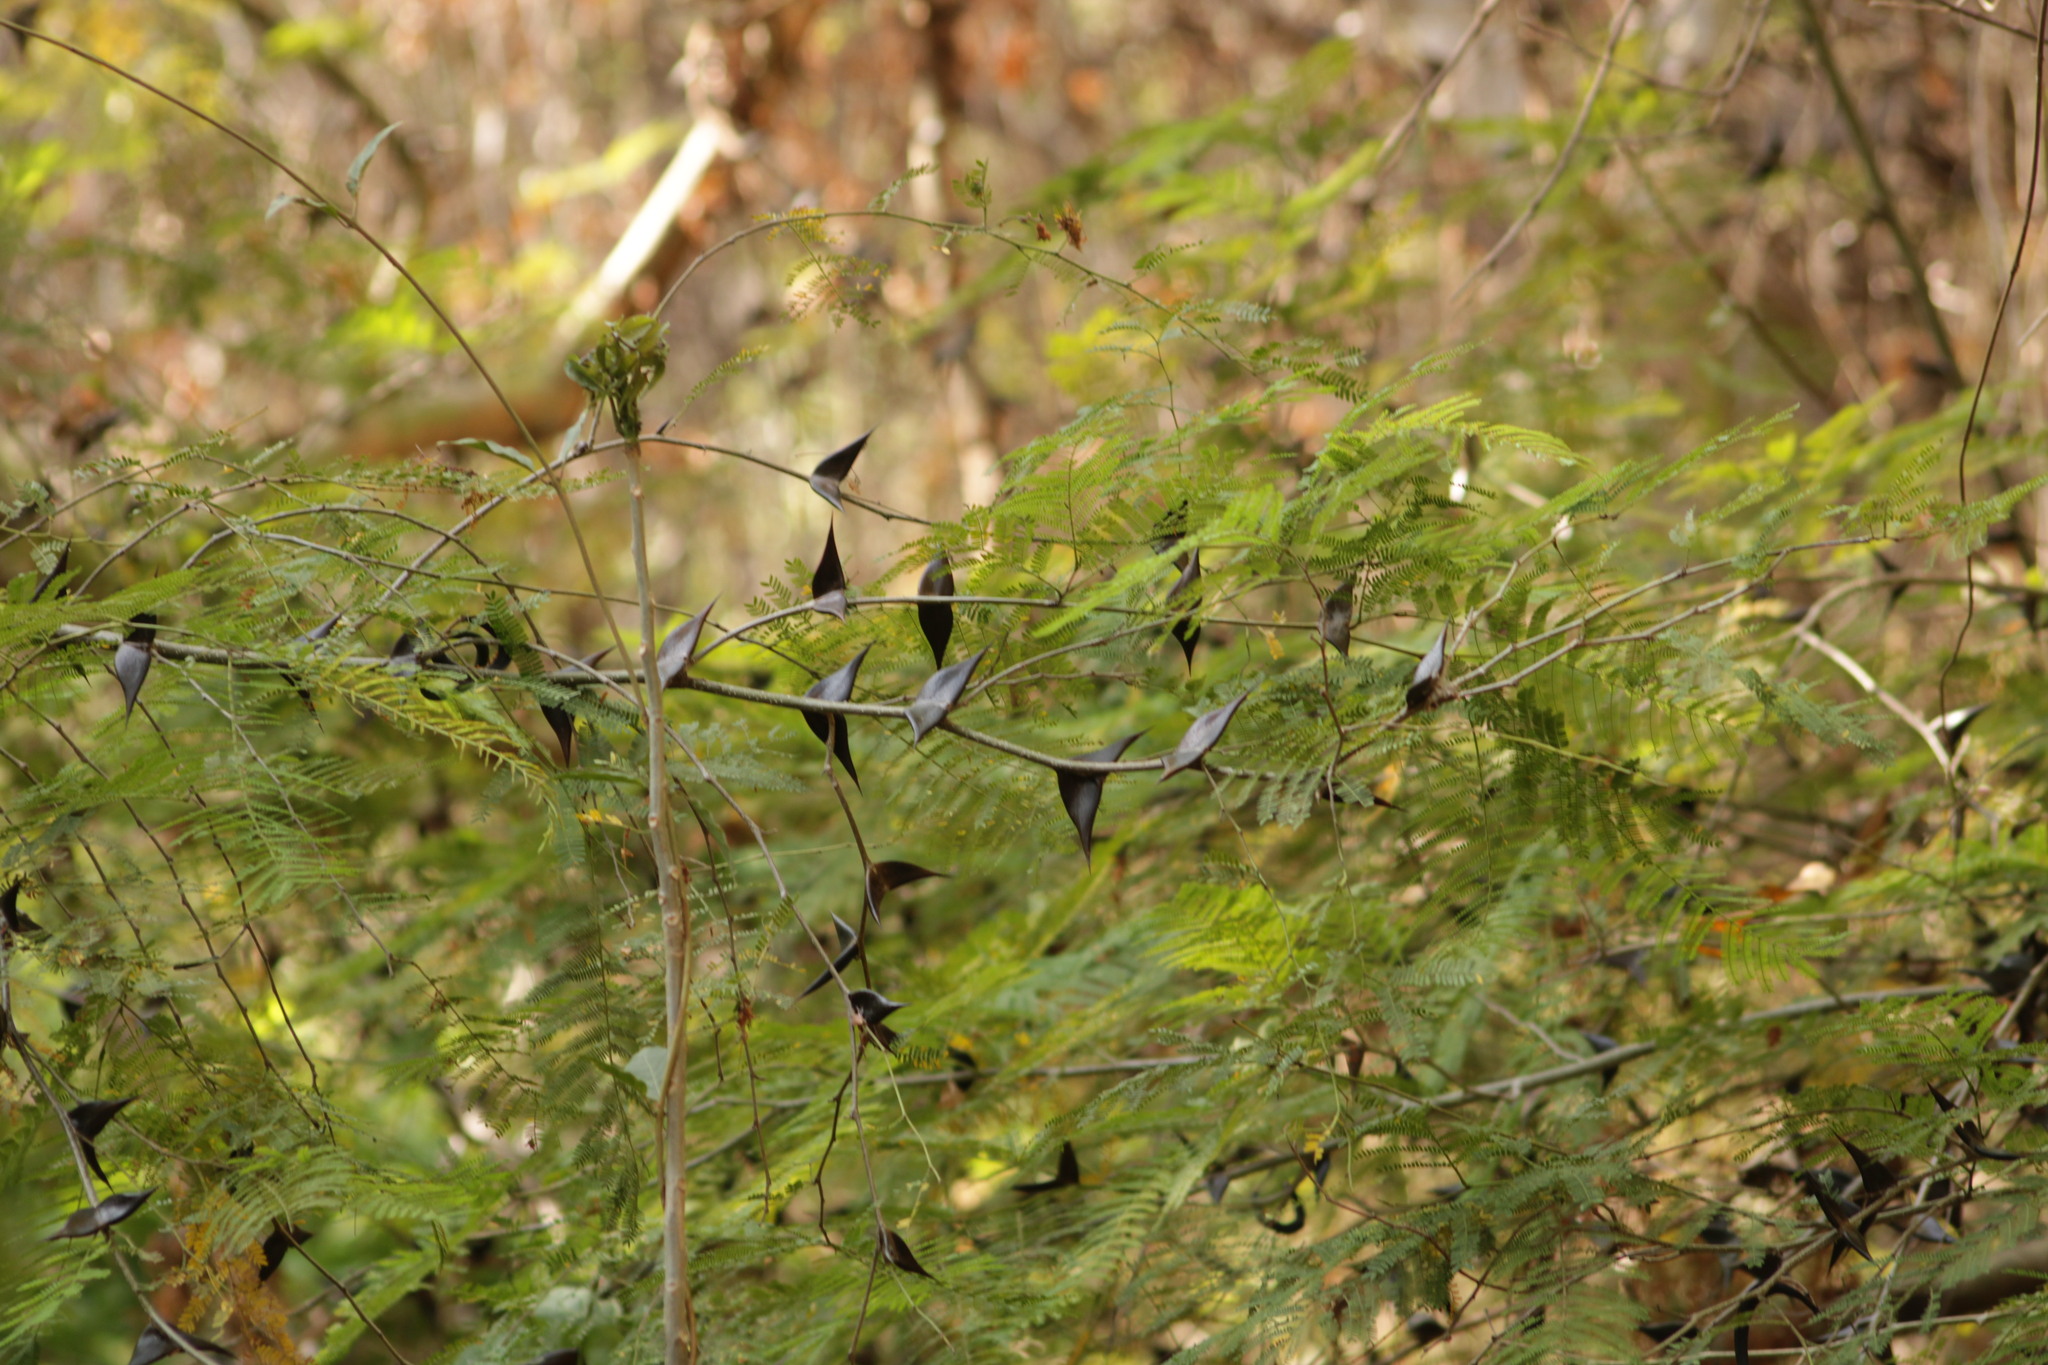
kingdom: Plantae
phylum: Tracheophyta
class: Magnoliopsida
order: Fabales
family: Fabaceae
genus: Vachellia
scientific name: Vachellia hindsii
